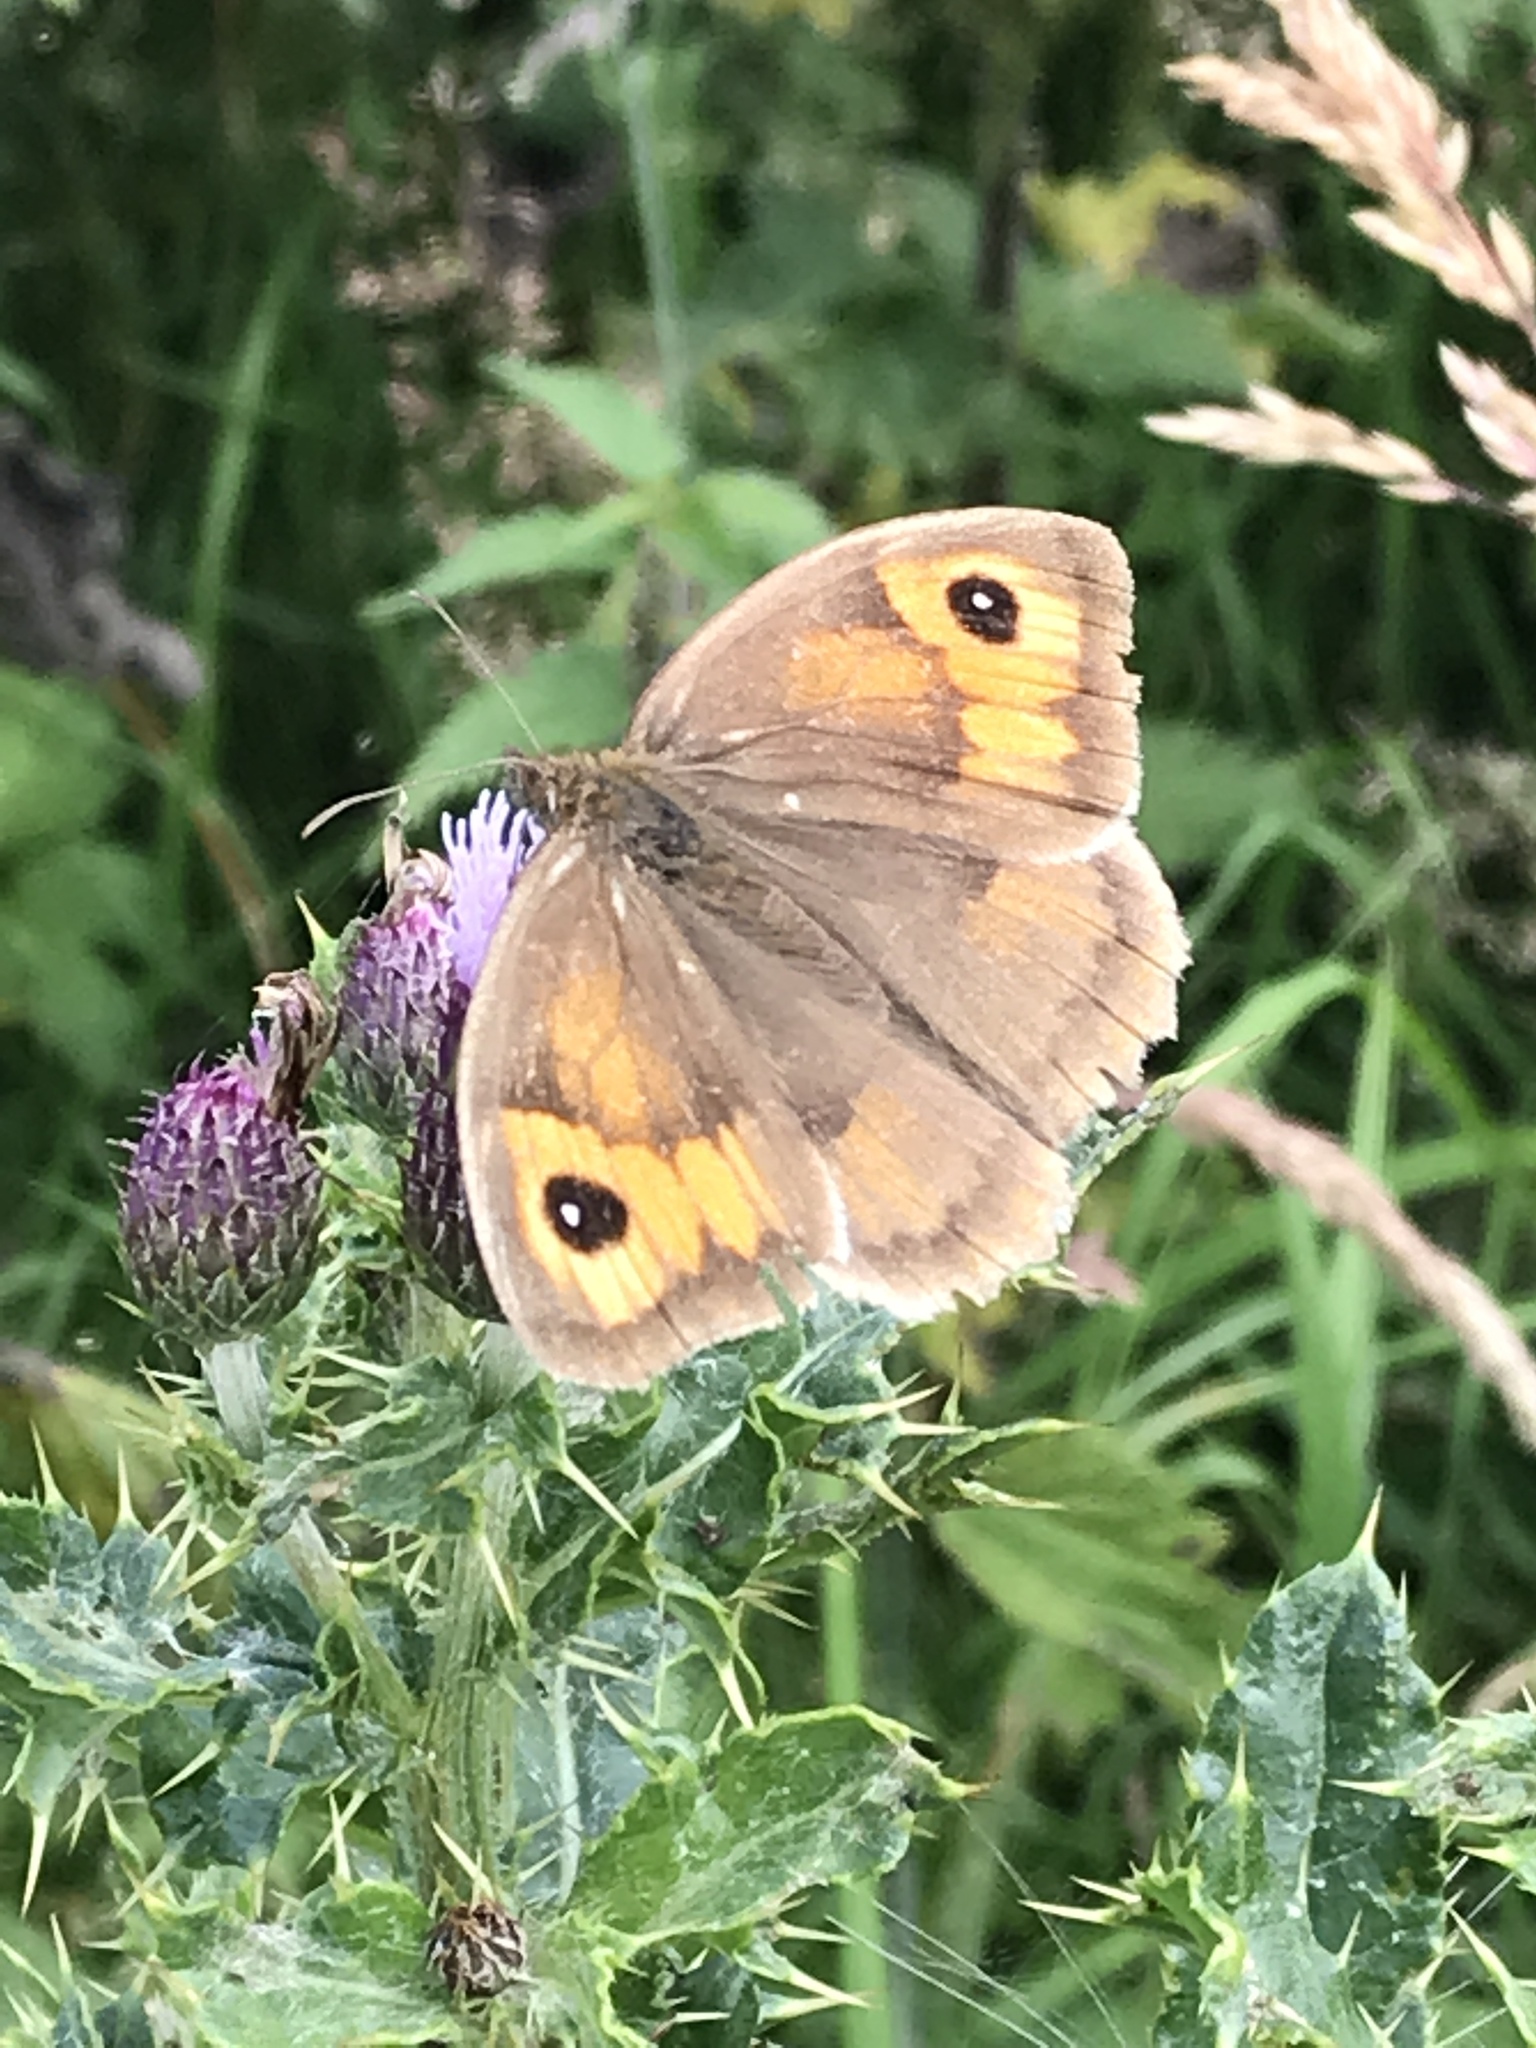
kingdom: Animalia
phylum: Arthropoda
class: Insecta
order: Lepidoptera
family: Nymphalidae
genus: Maniola
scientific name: Maniola jurtina
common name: Meadow brown
